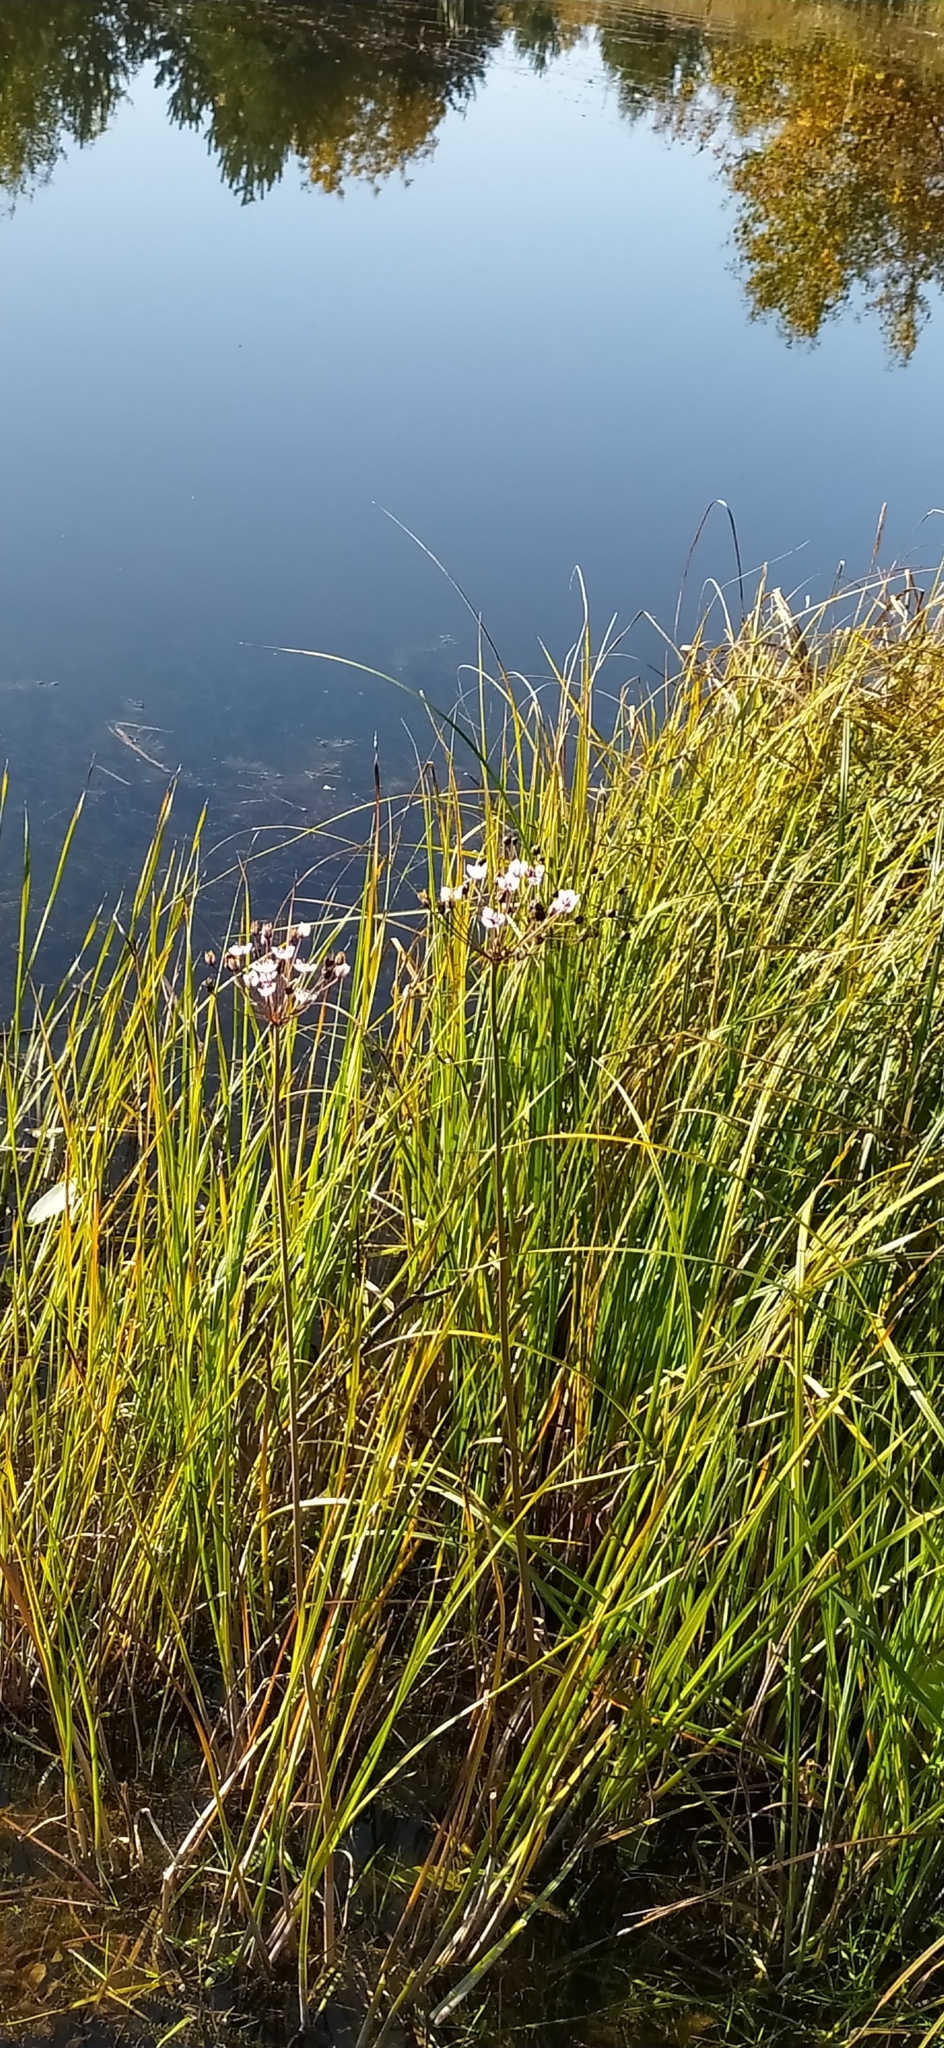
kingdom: Plantae
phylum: Tracheophyta
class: Liliopsida
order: Alismatales
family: Butomaceae
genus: Butomus
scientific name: Butomus umbellatus
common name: Flowering-rush
